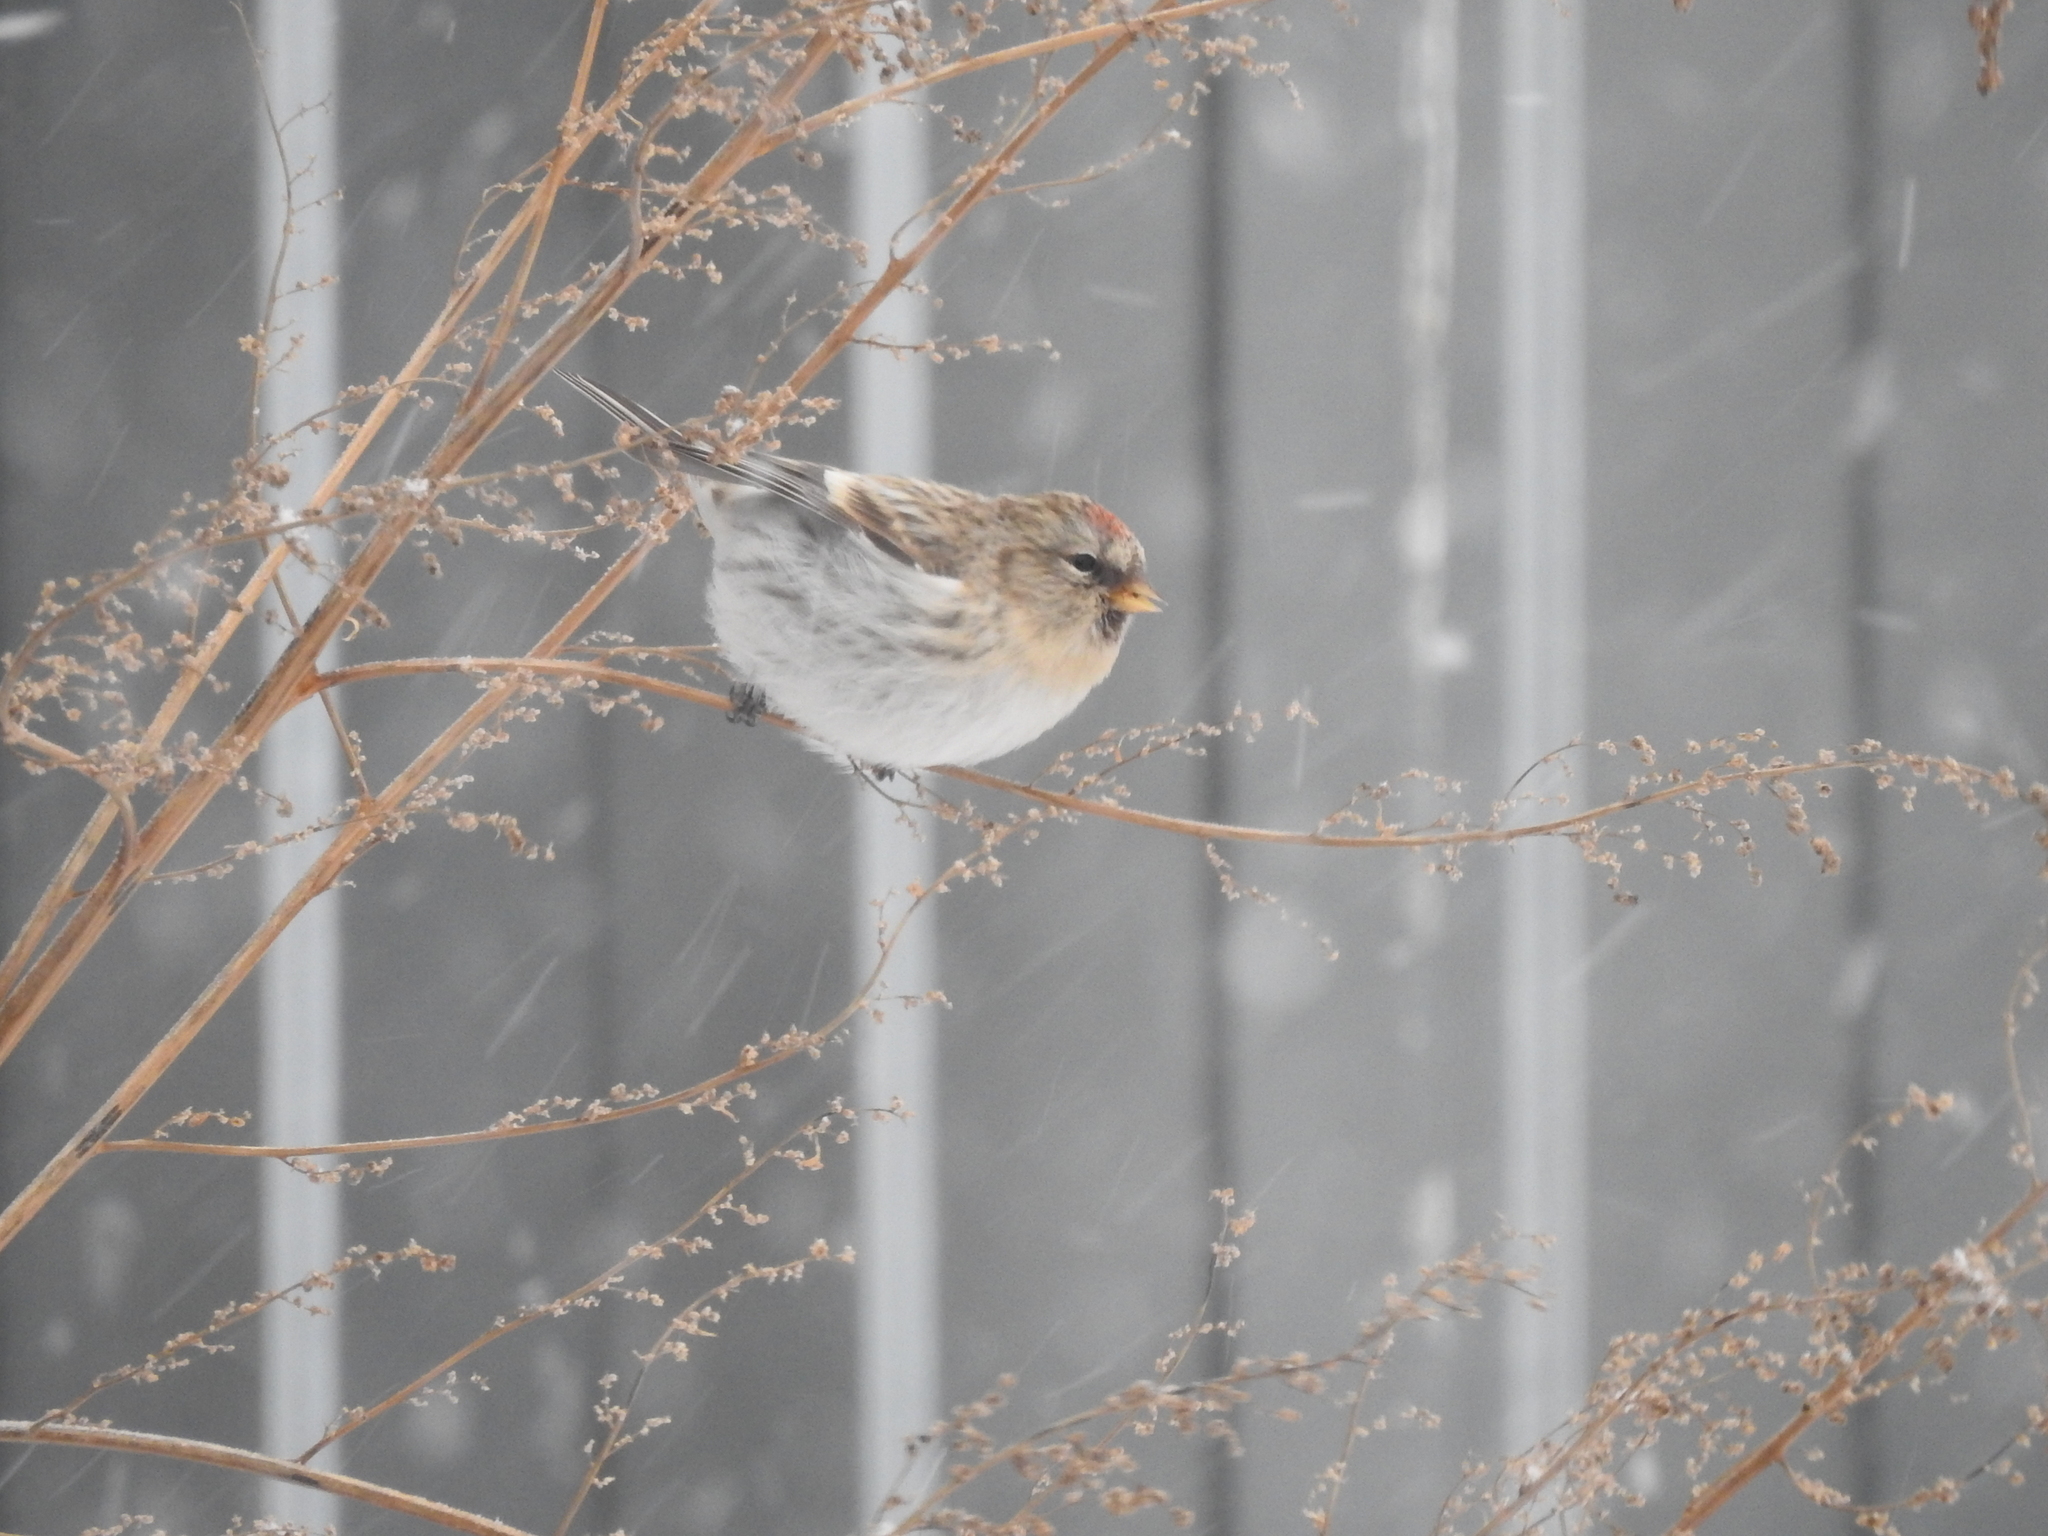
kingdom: Animalia
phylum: Chordata
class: Aves
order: Passeriformes
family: Fringillidae
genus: Acanthis
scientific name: Acanthis flammea
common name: Common redpoll
